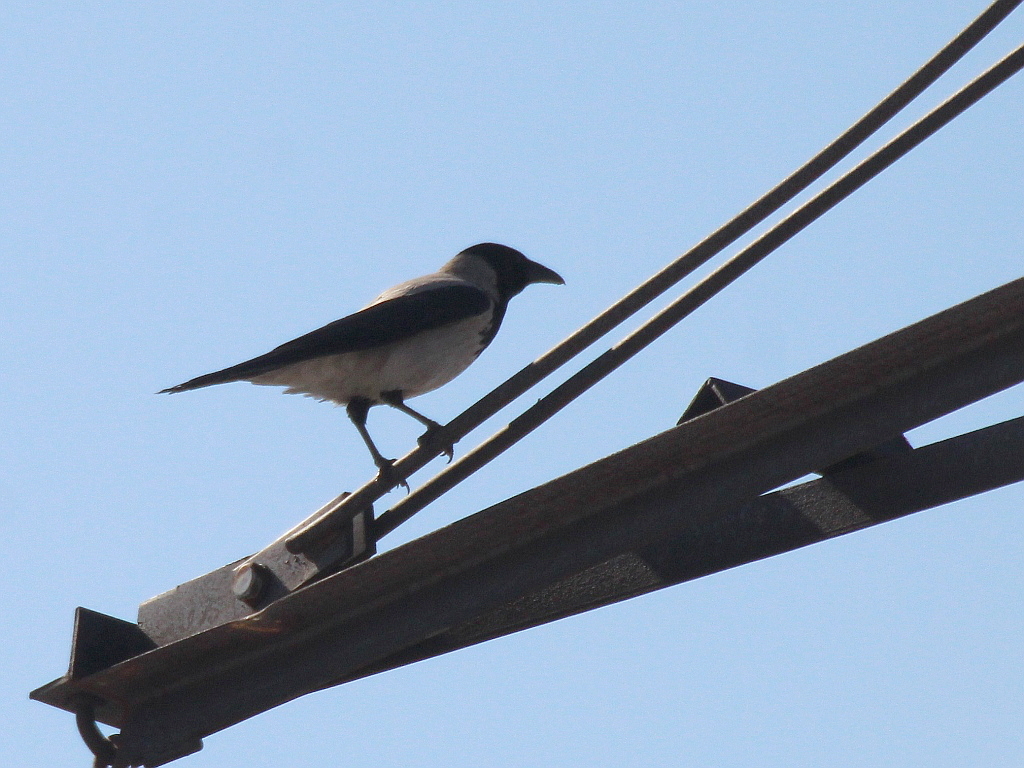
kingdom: Animalia
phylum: Chordata
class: Aves
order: Passeriformes
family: Corvidae
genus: Corvus
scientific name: Corvus cornix
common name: Hooded crow
